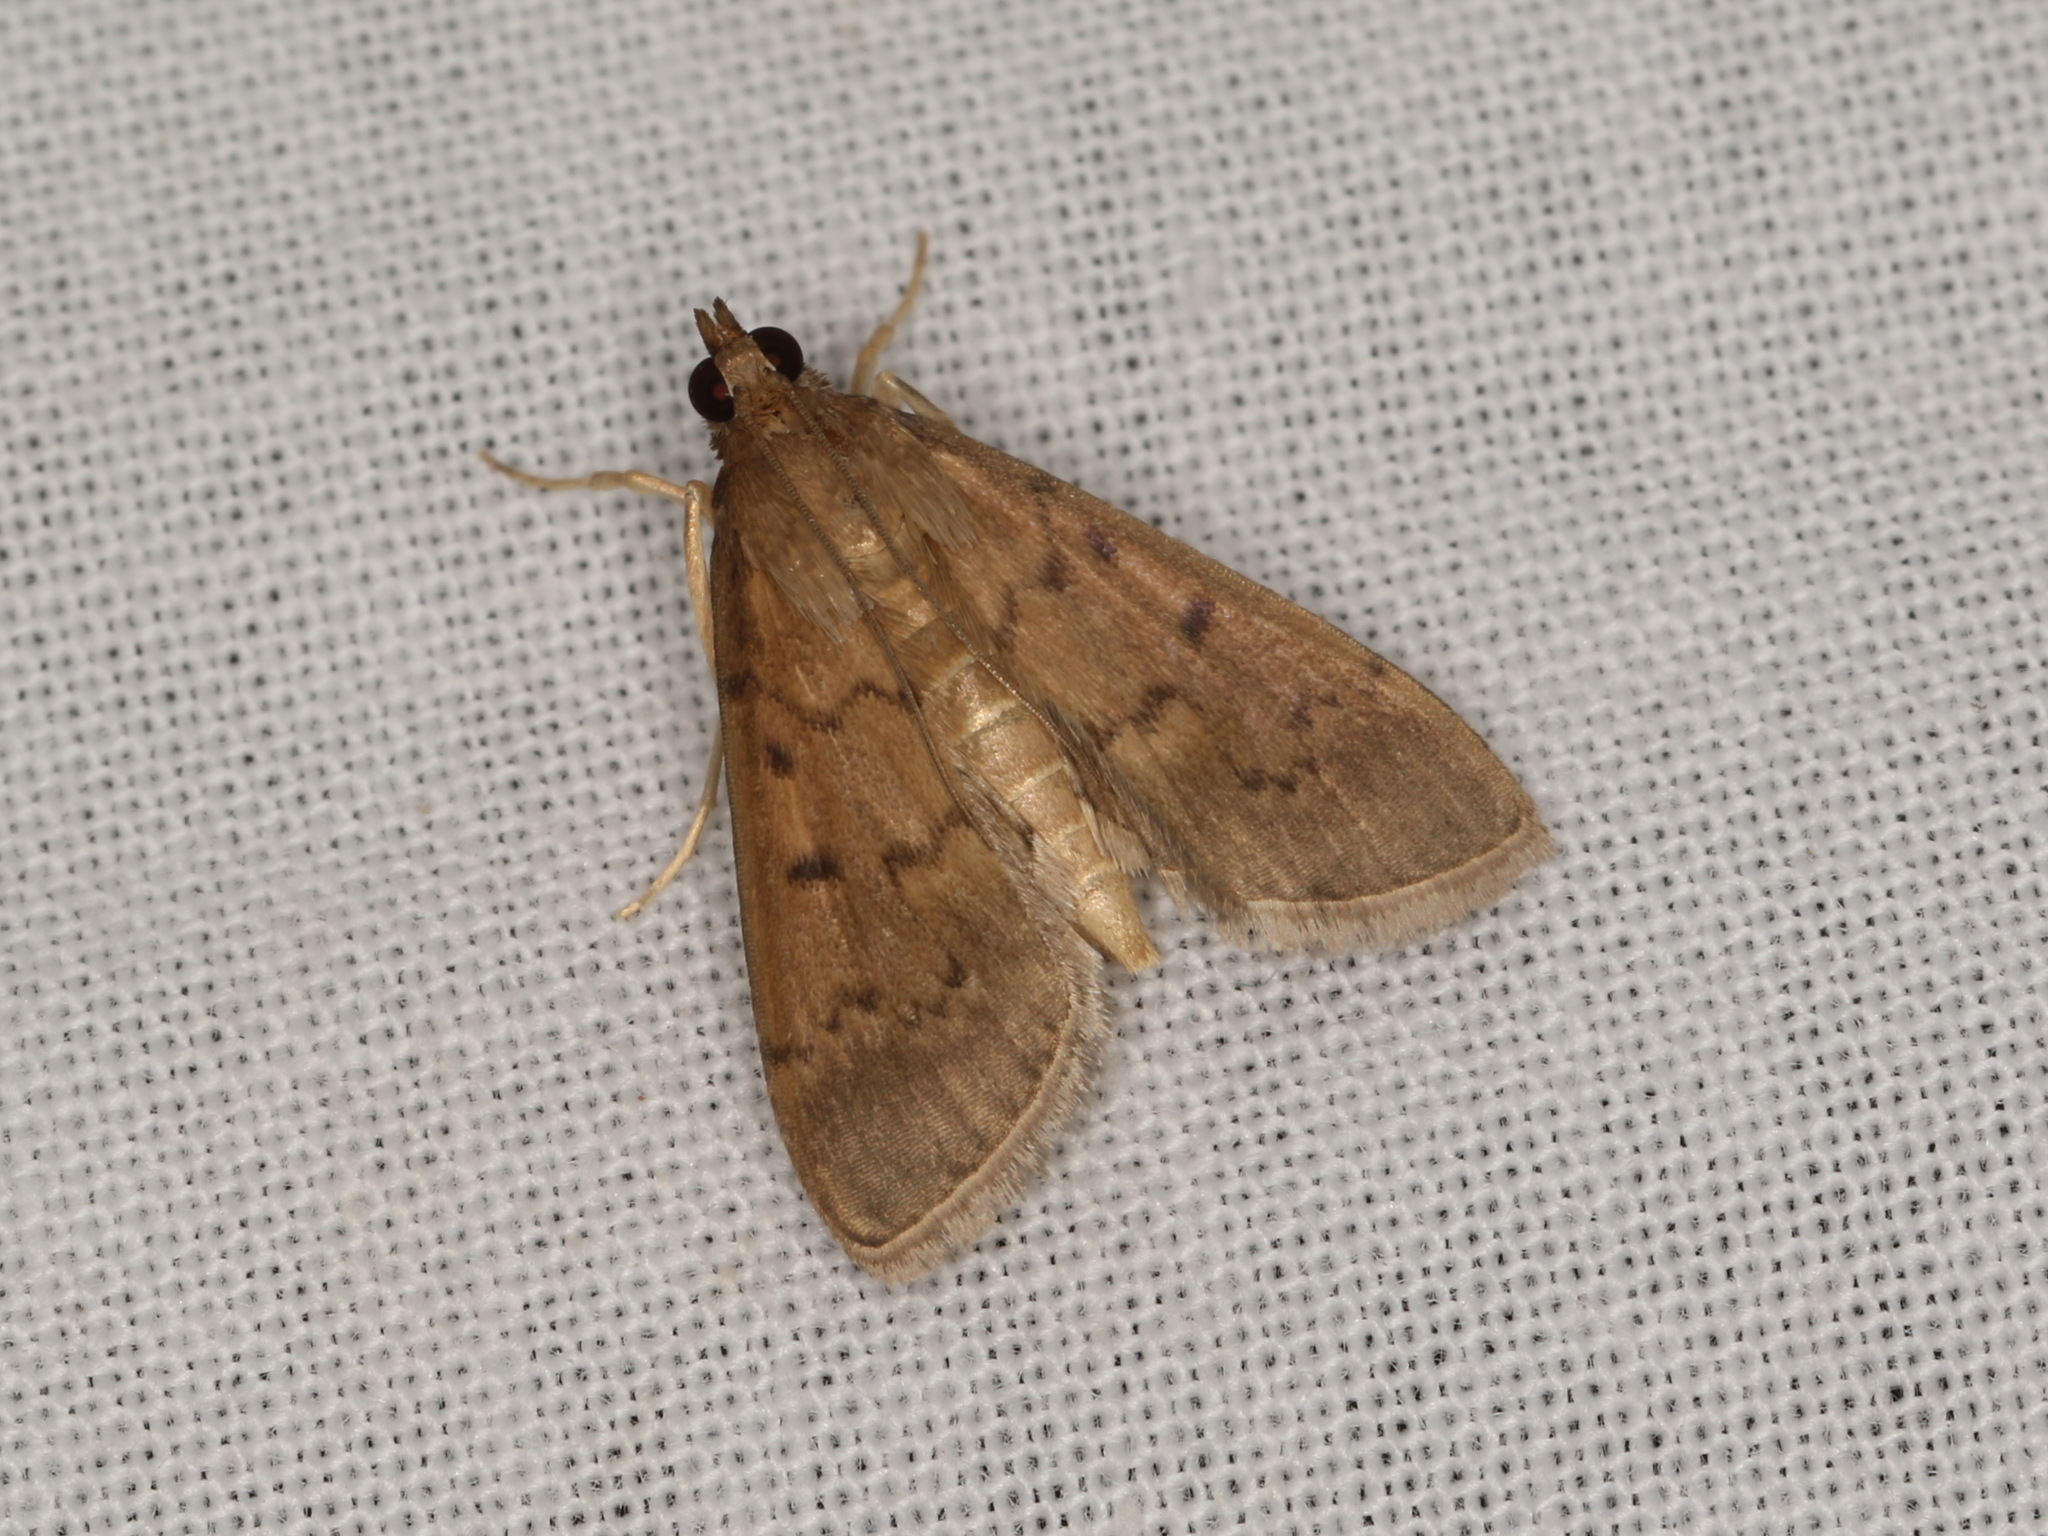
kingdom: Animalia
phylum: Arthropoda
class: Insecta
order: Lepidoptera
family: Crambidae
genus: Herpetogramma
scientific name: Herpetogramma licarsisalis
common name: Grass webworm
